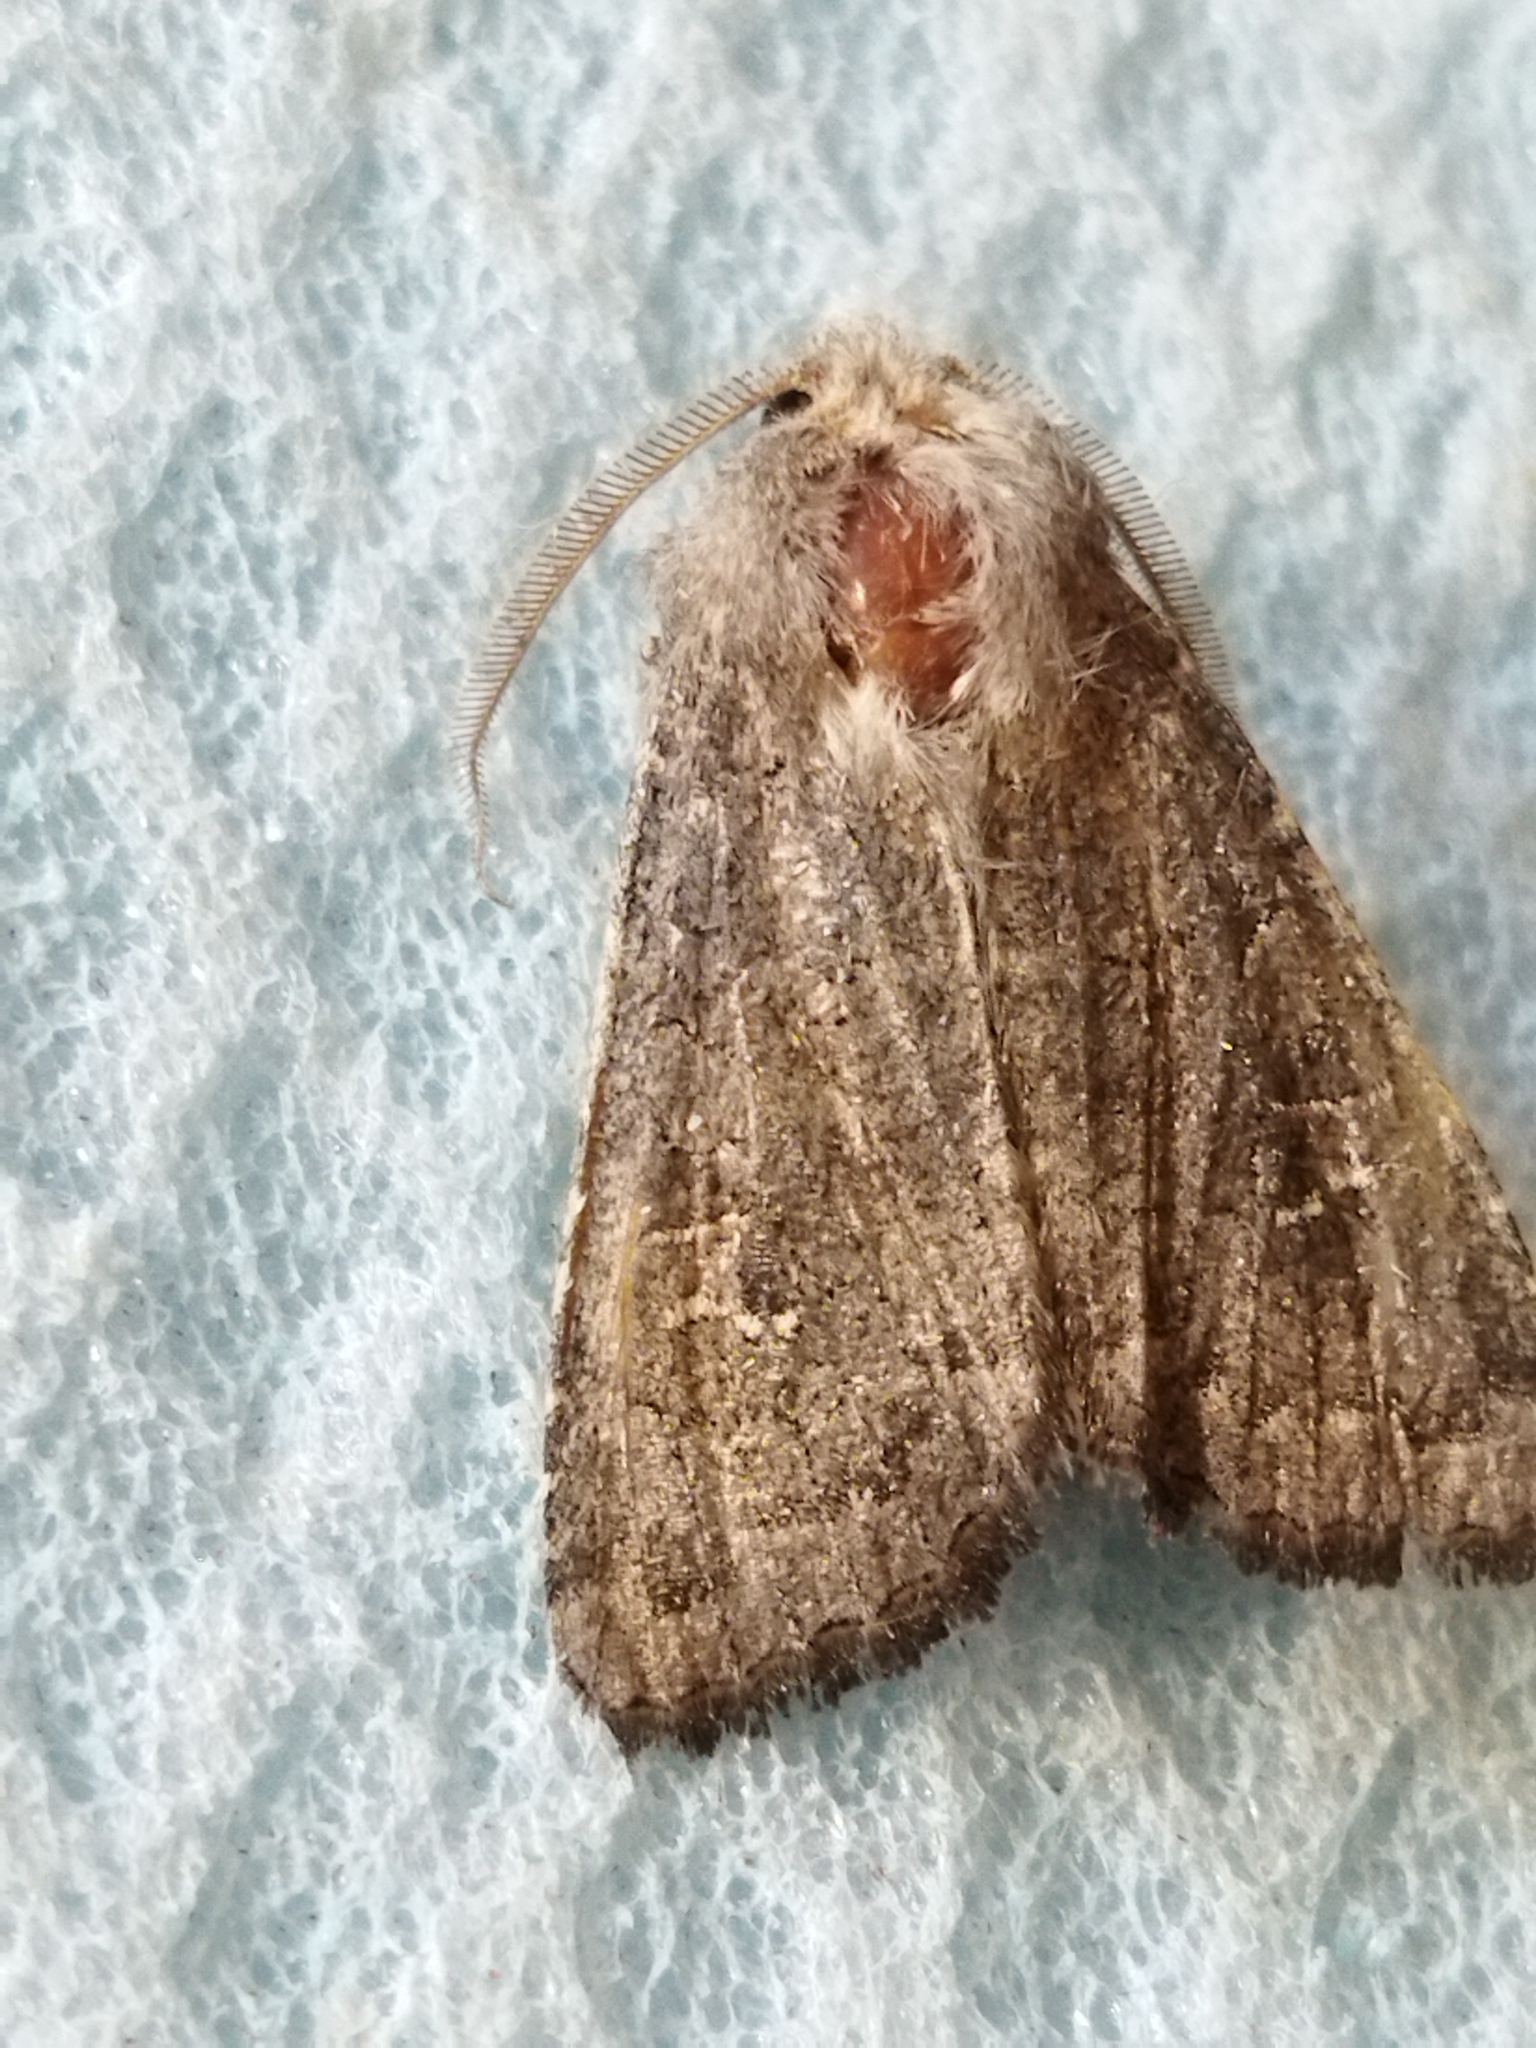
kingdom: Animalia
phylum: Arthropoda
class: Insecta
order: Lepidoptera
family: Noctuidae
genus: Aporophyla
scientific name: Aporophyla lutulenta
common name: Deep-brown dart
